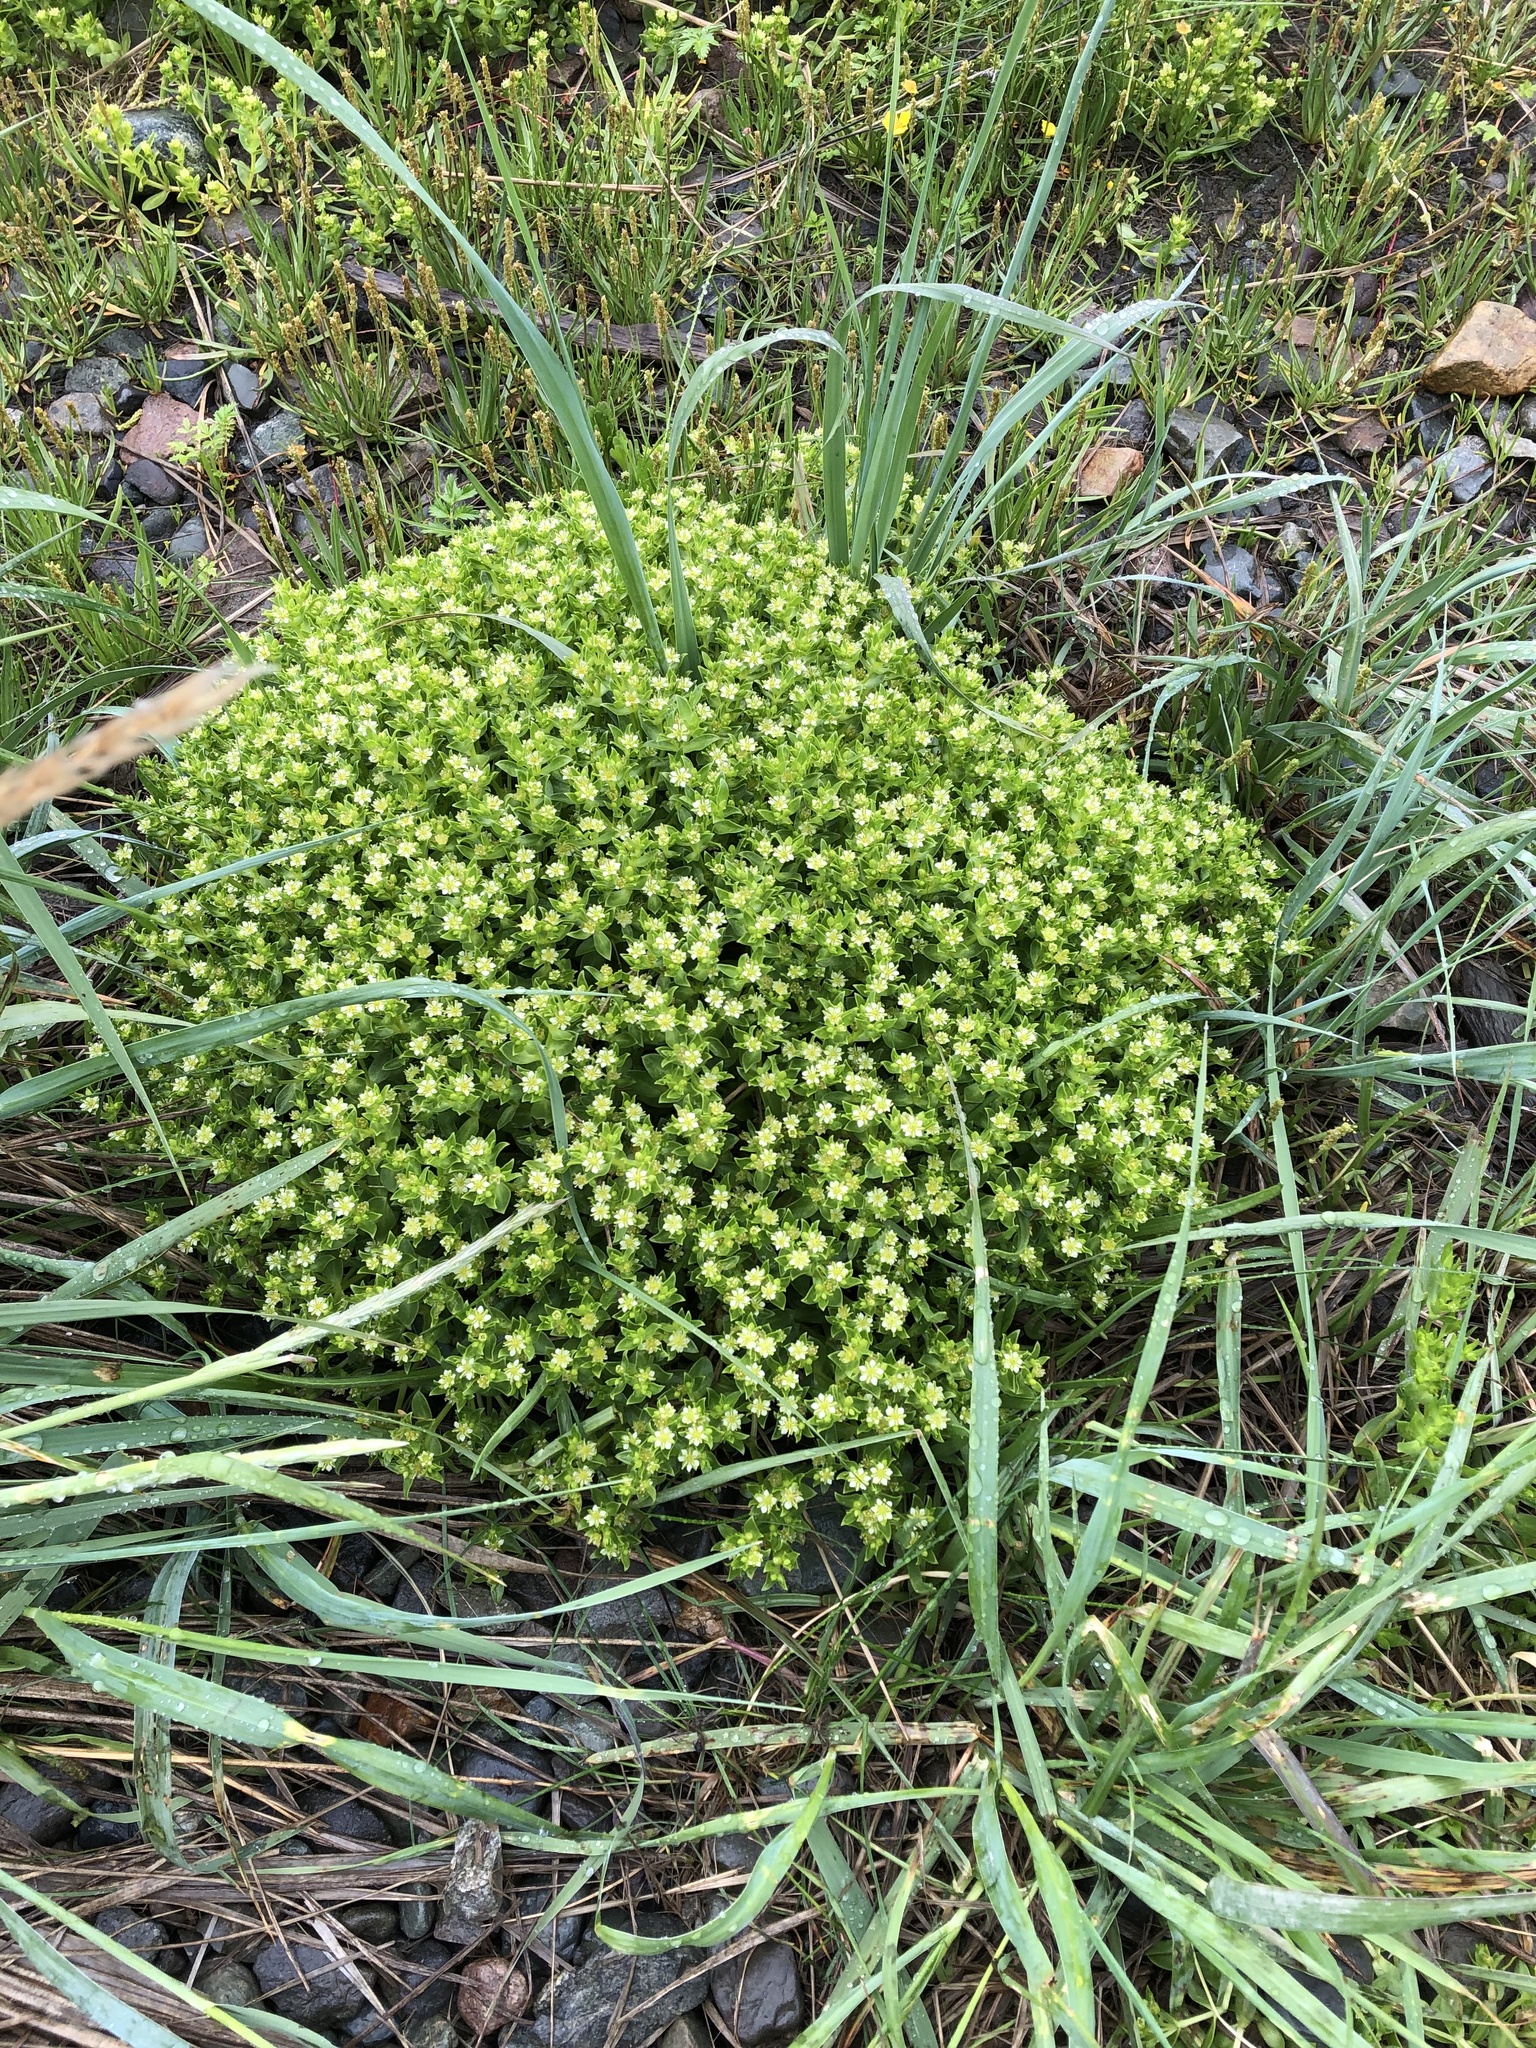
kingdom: Plantae
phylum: Tracheophyta
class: Magnoliopsida
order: Caryophyllales
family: Caryophyllaceae
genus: Honckenya
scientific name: Honckenya peploides
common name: Sea sandwort
